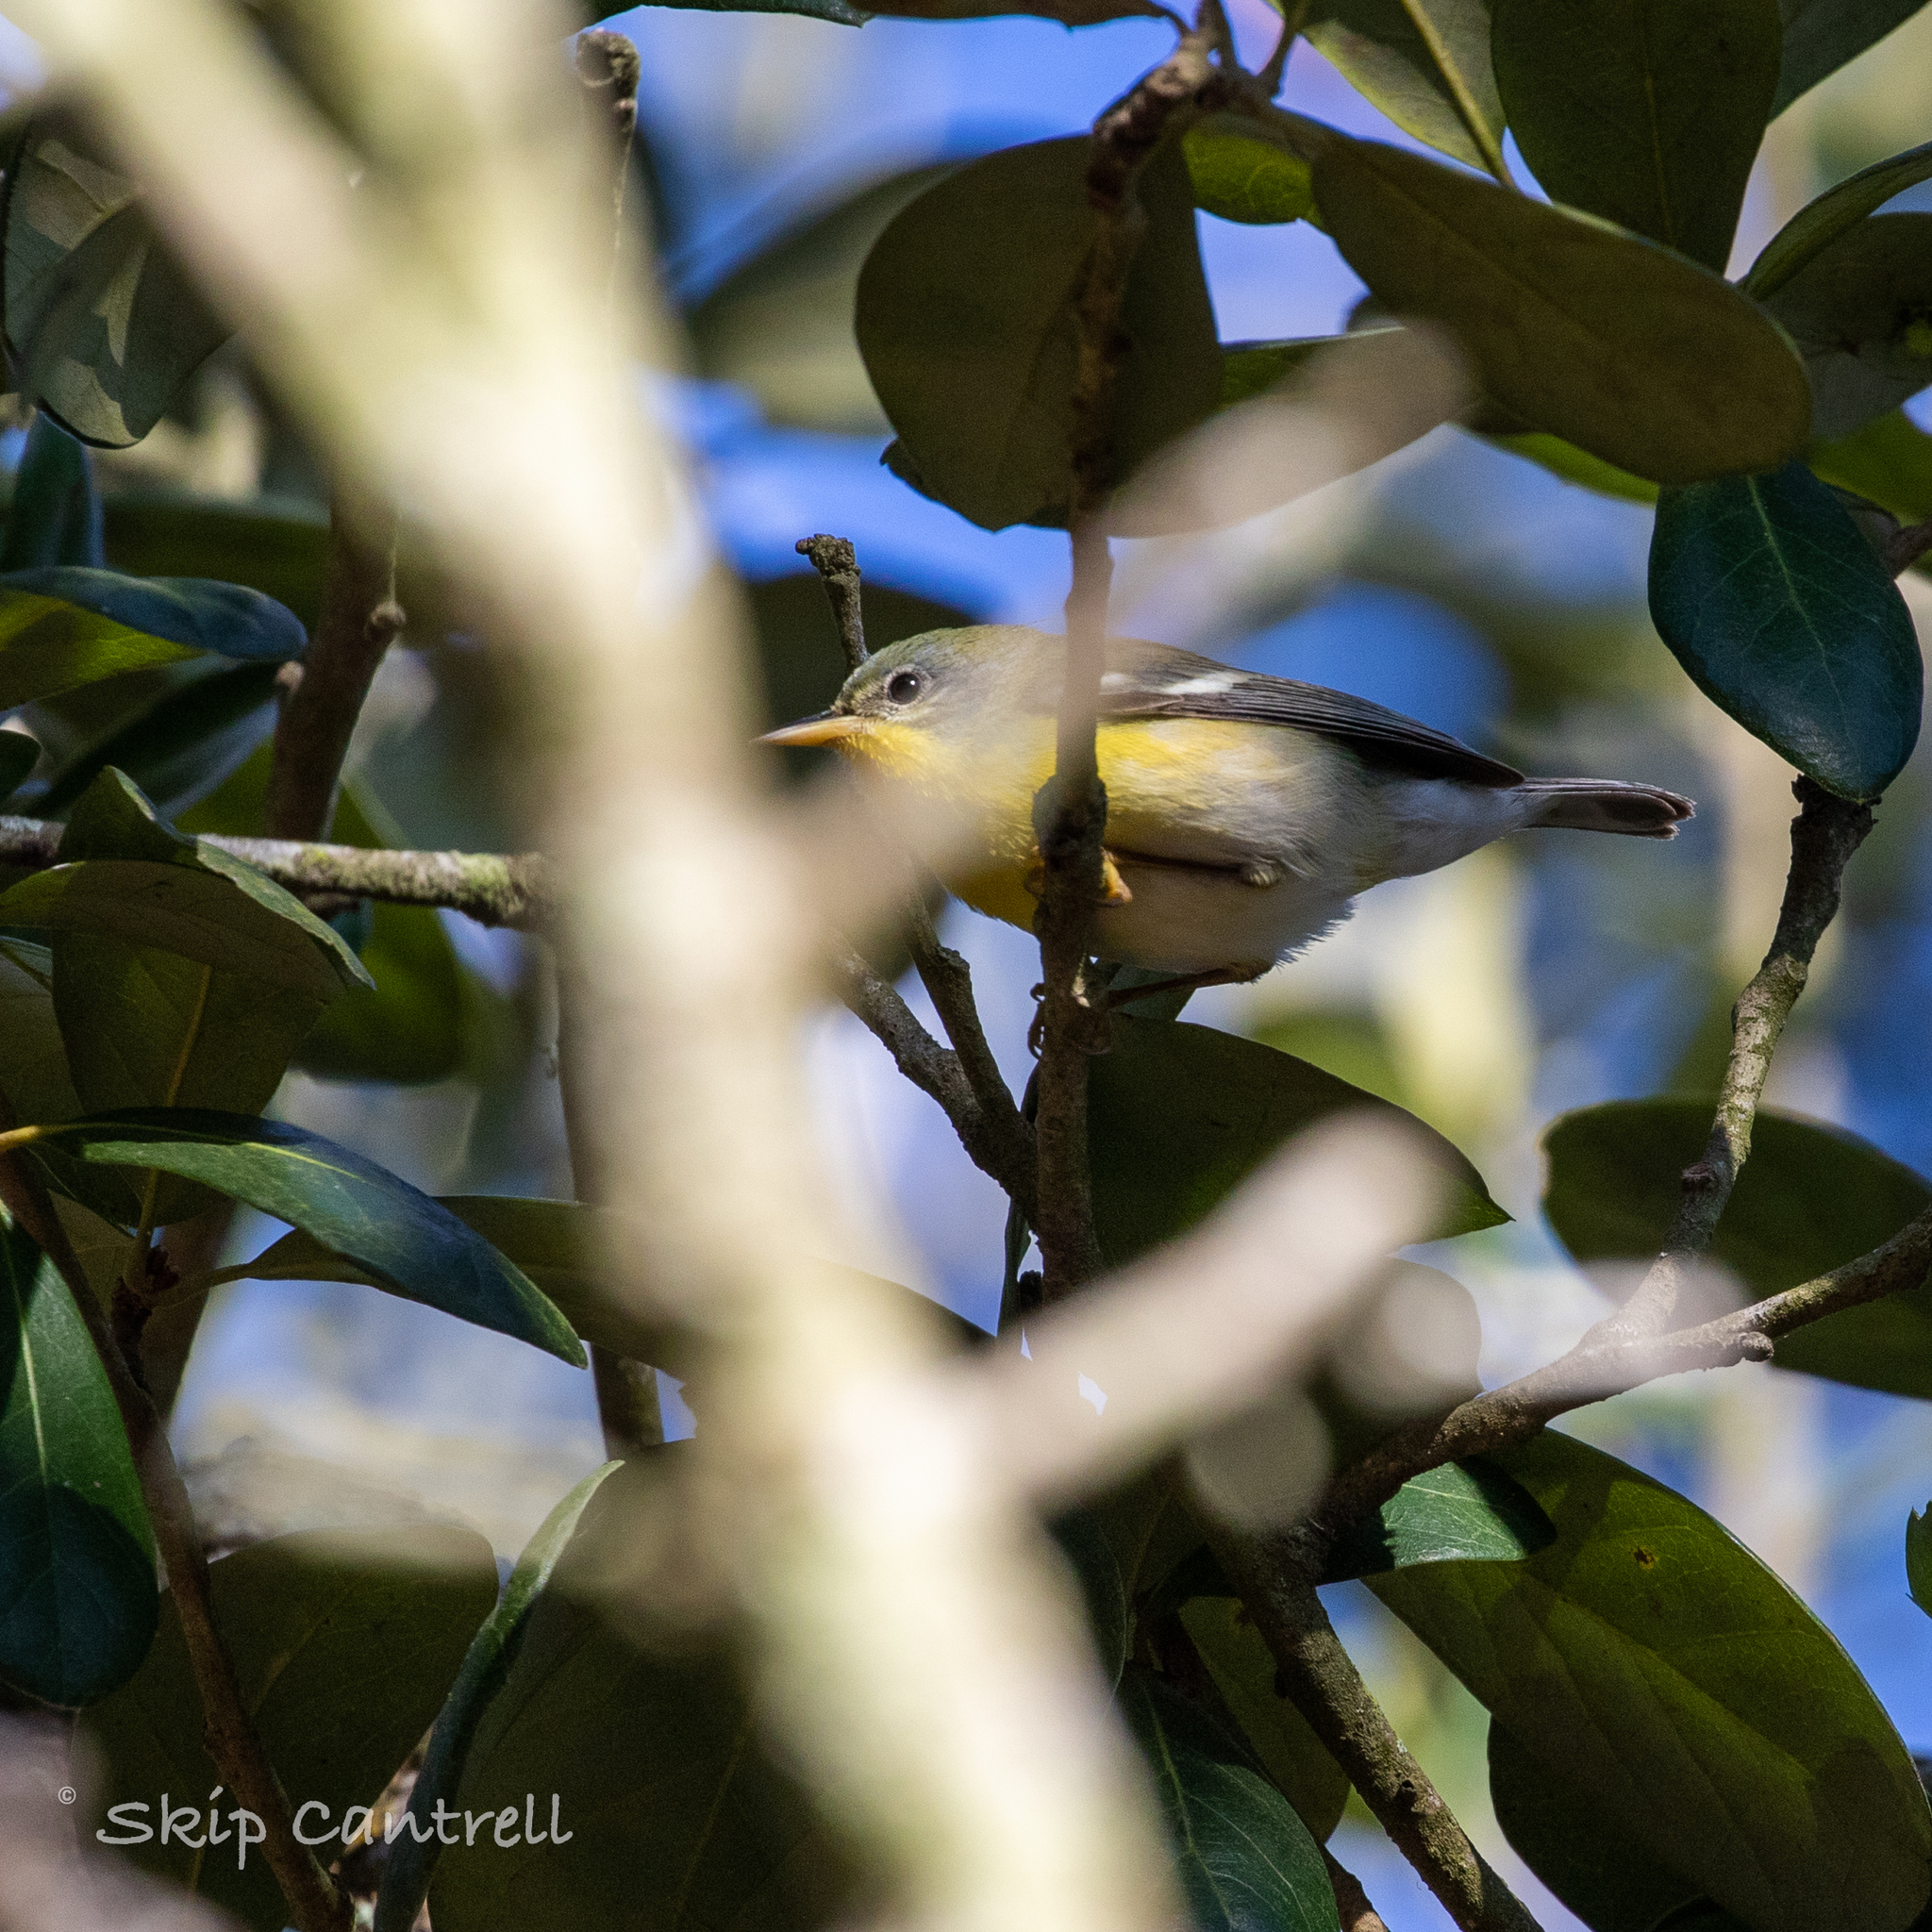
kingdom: Animalia
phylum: Chordata
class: Aves
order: Passeriformes
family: Parulidae
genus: Setophaga
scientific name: Setophaga pitiayumi
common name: Tropical parula
